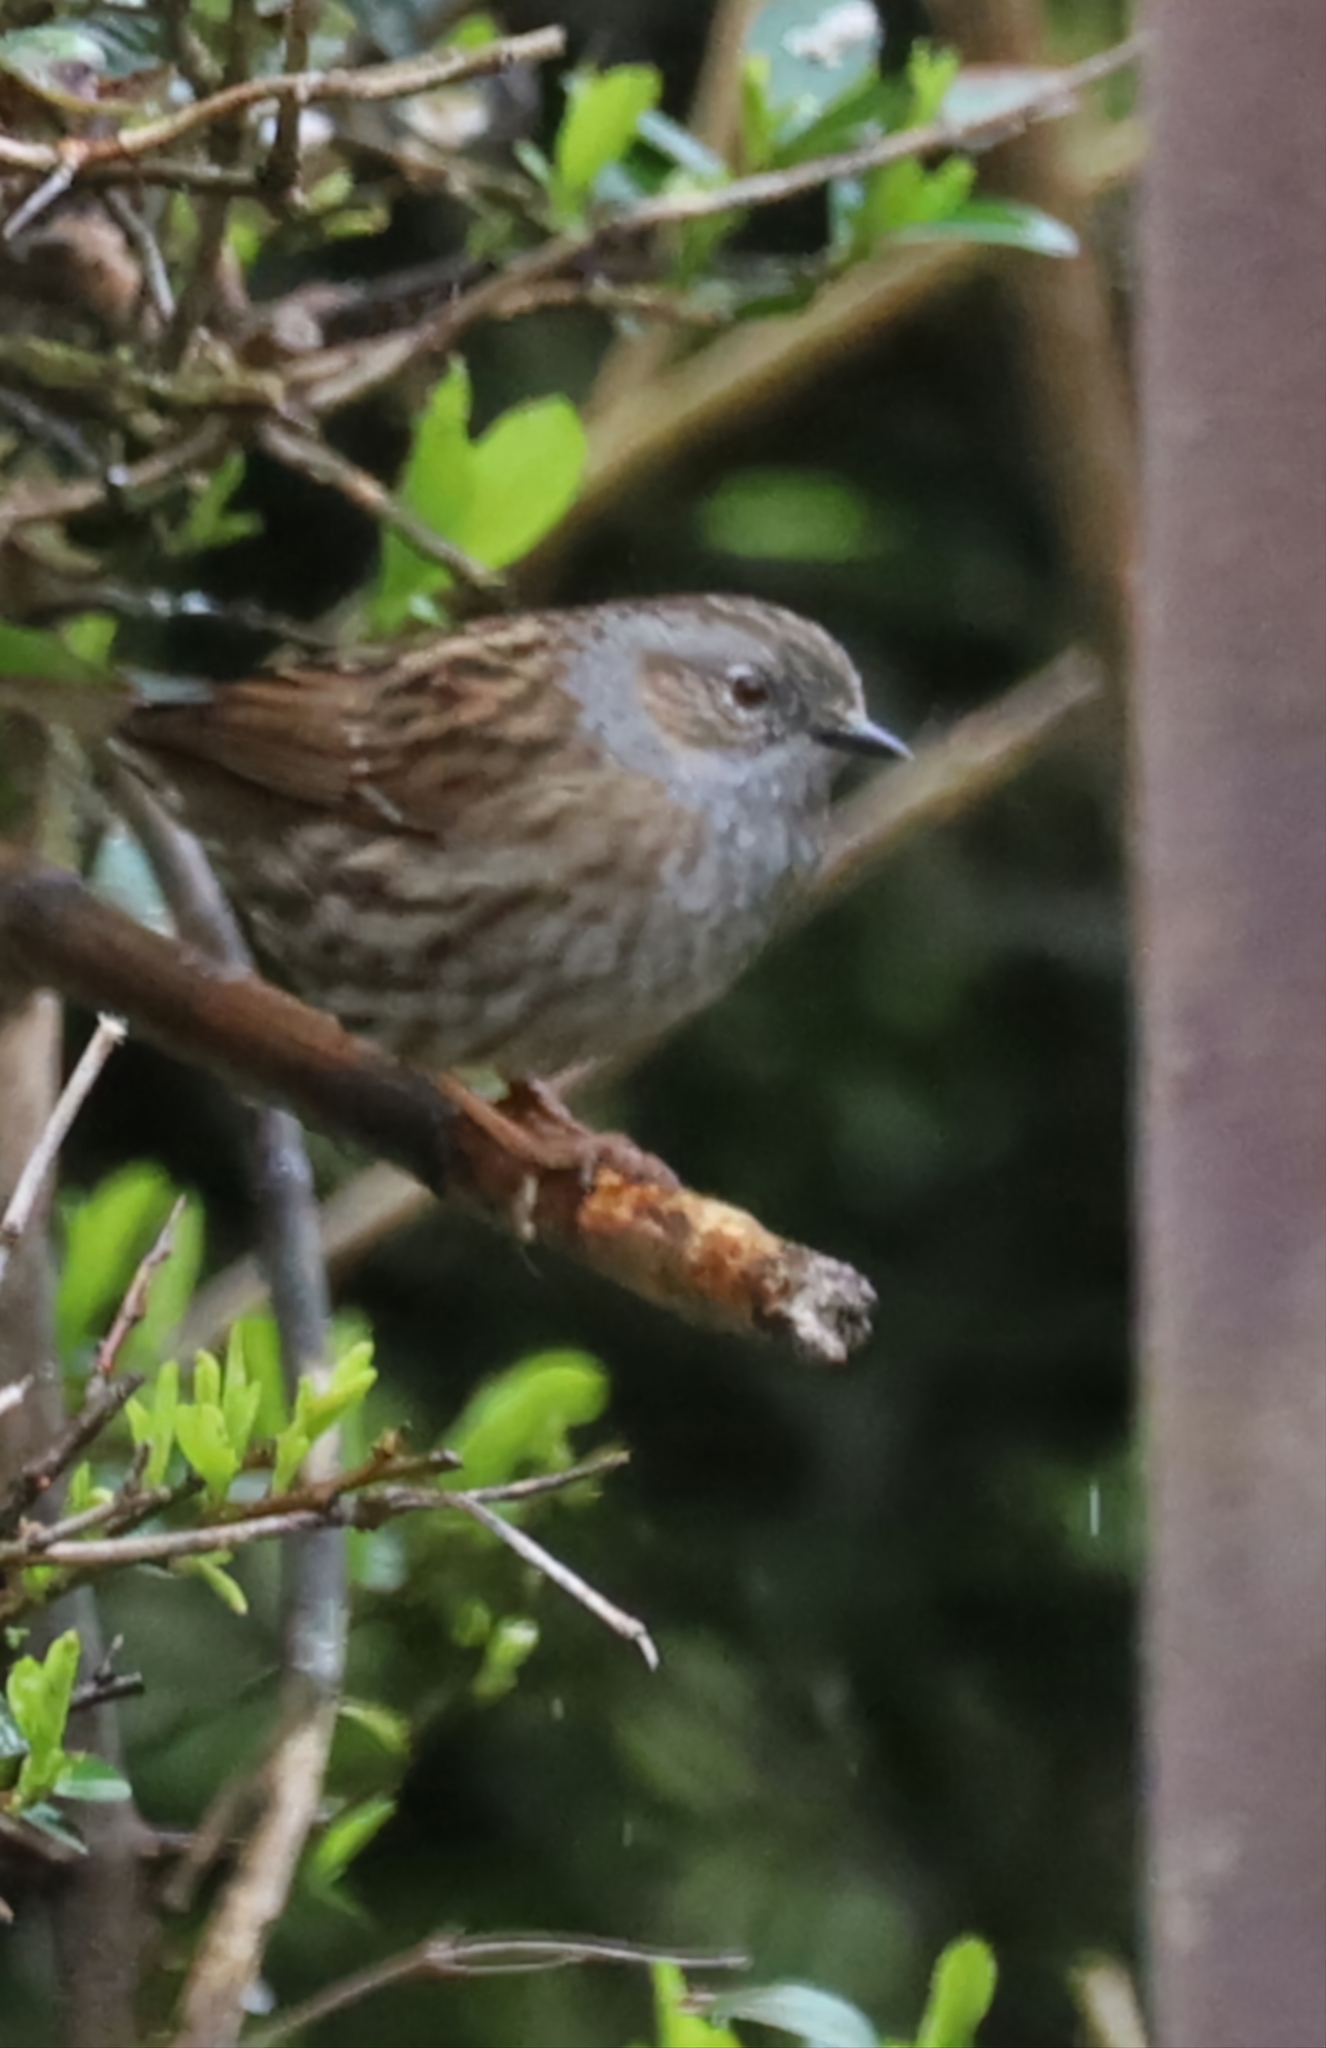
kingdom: Animalia
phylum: Chordata
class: Aves
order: Passeriformes
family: Prunellidae
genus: Prunella
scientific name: Prunella modularis
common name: Dunnock
